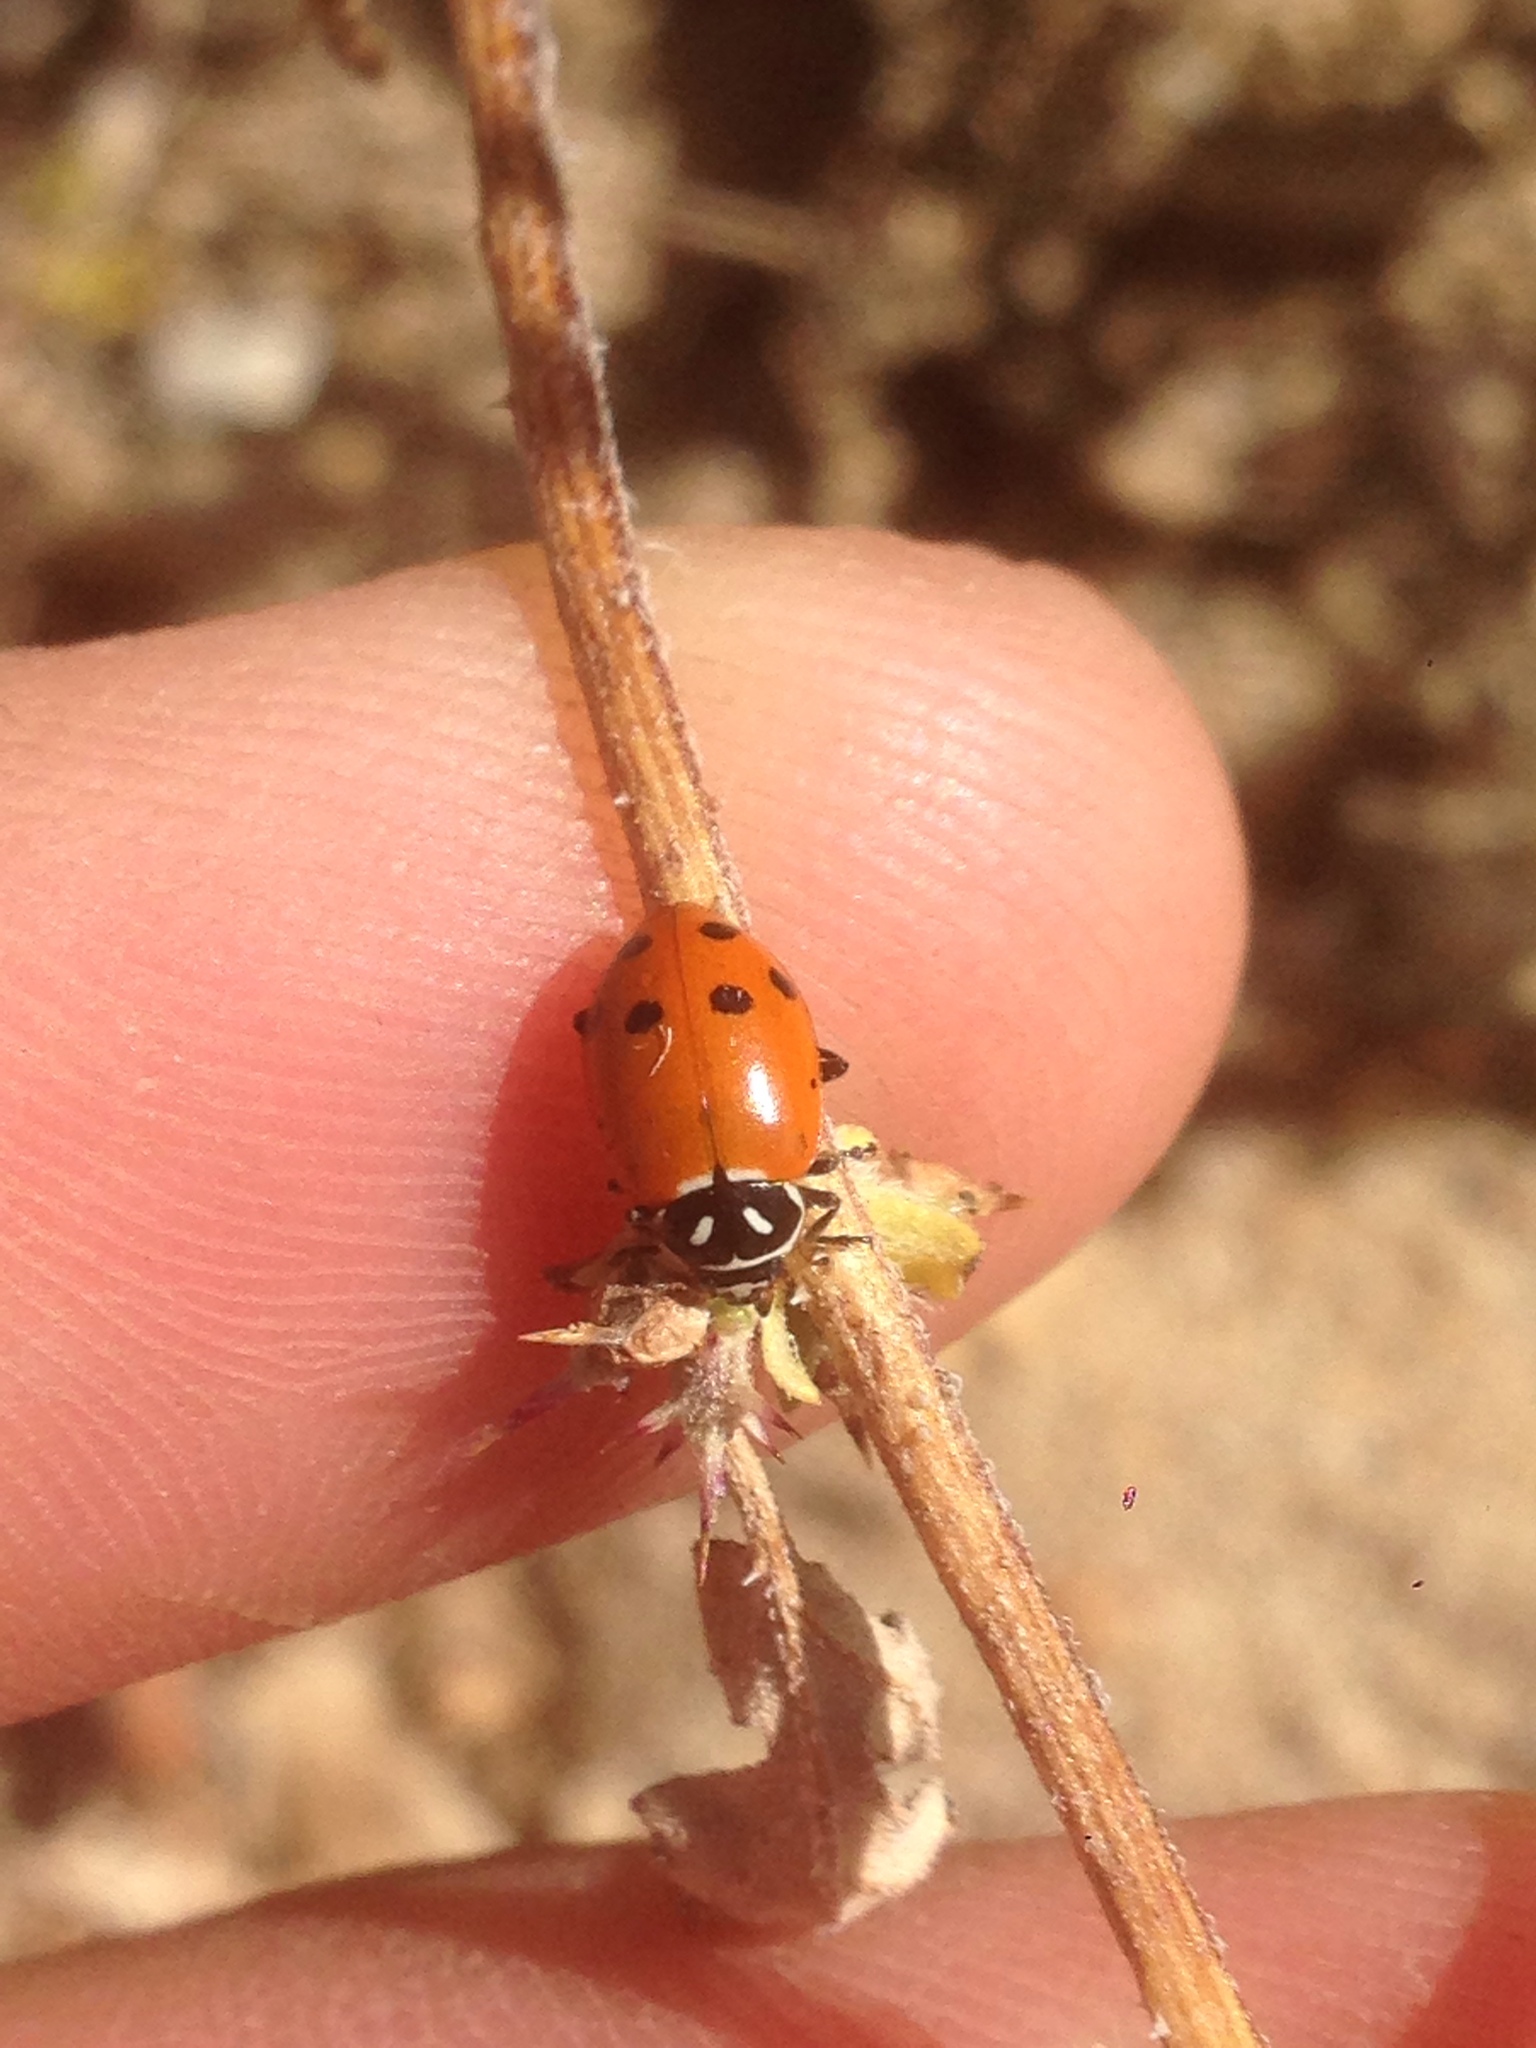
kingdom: Animalia
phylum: Arthropoda
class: Insecta
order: Coleoptera
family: Coccinellidae
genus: Hippodamia
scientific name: Hippodamia convergens
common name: Convergent lady beetle
